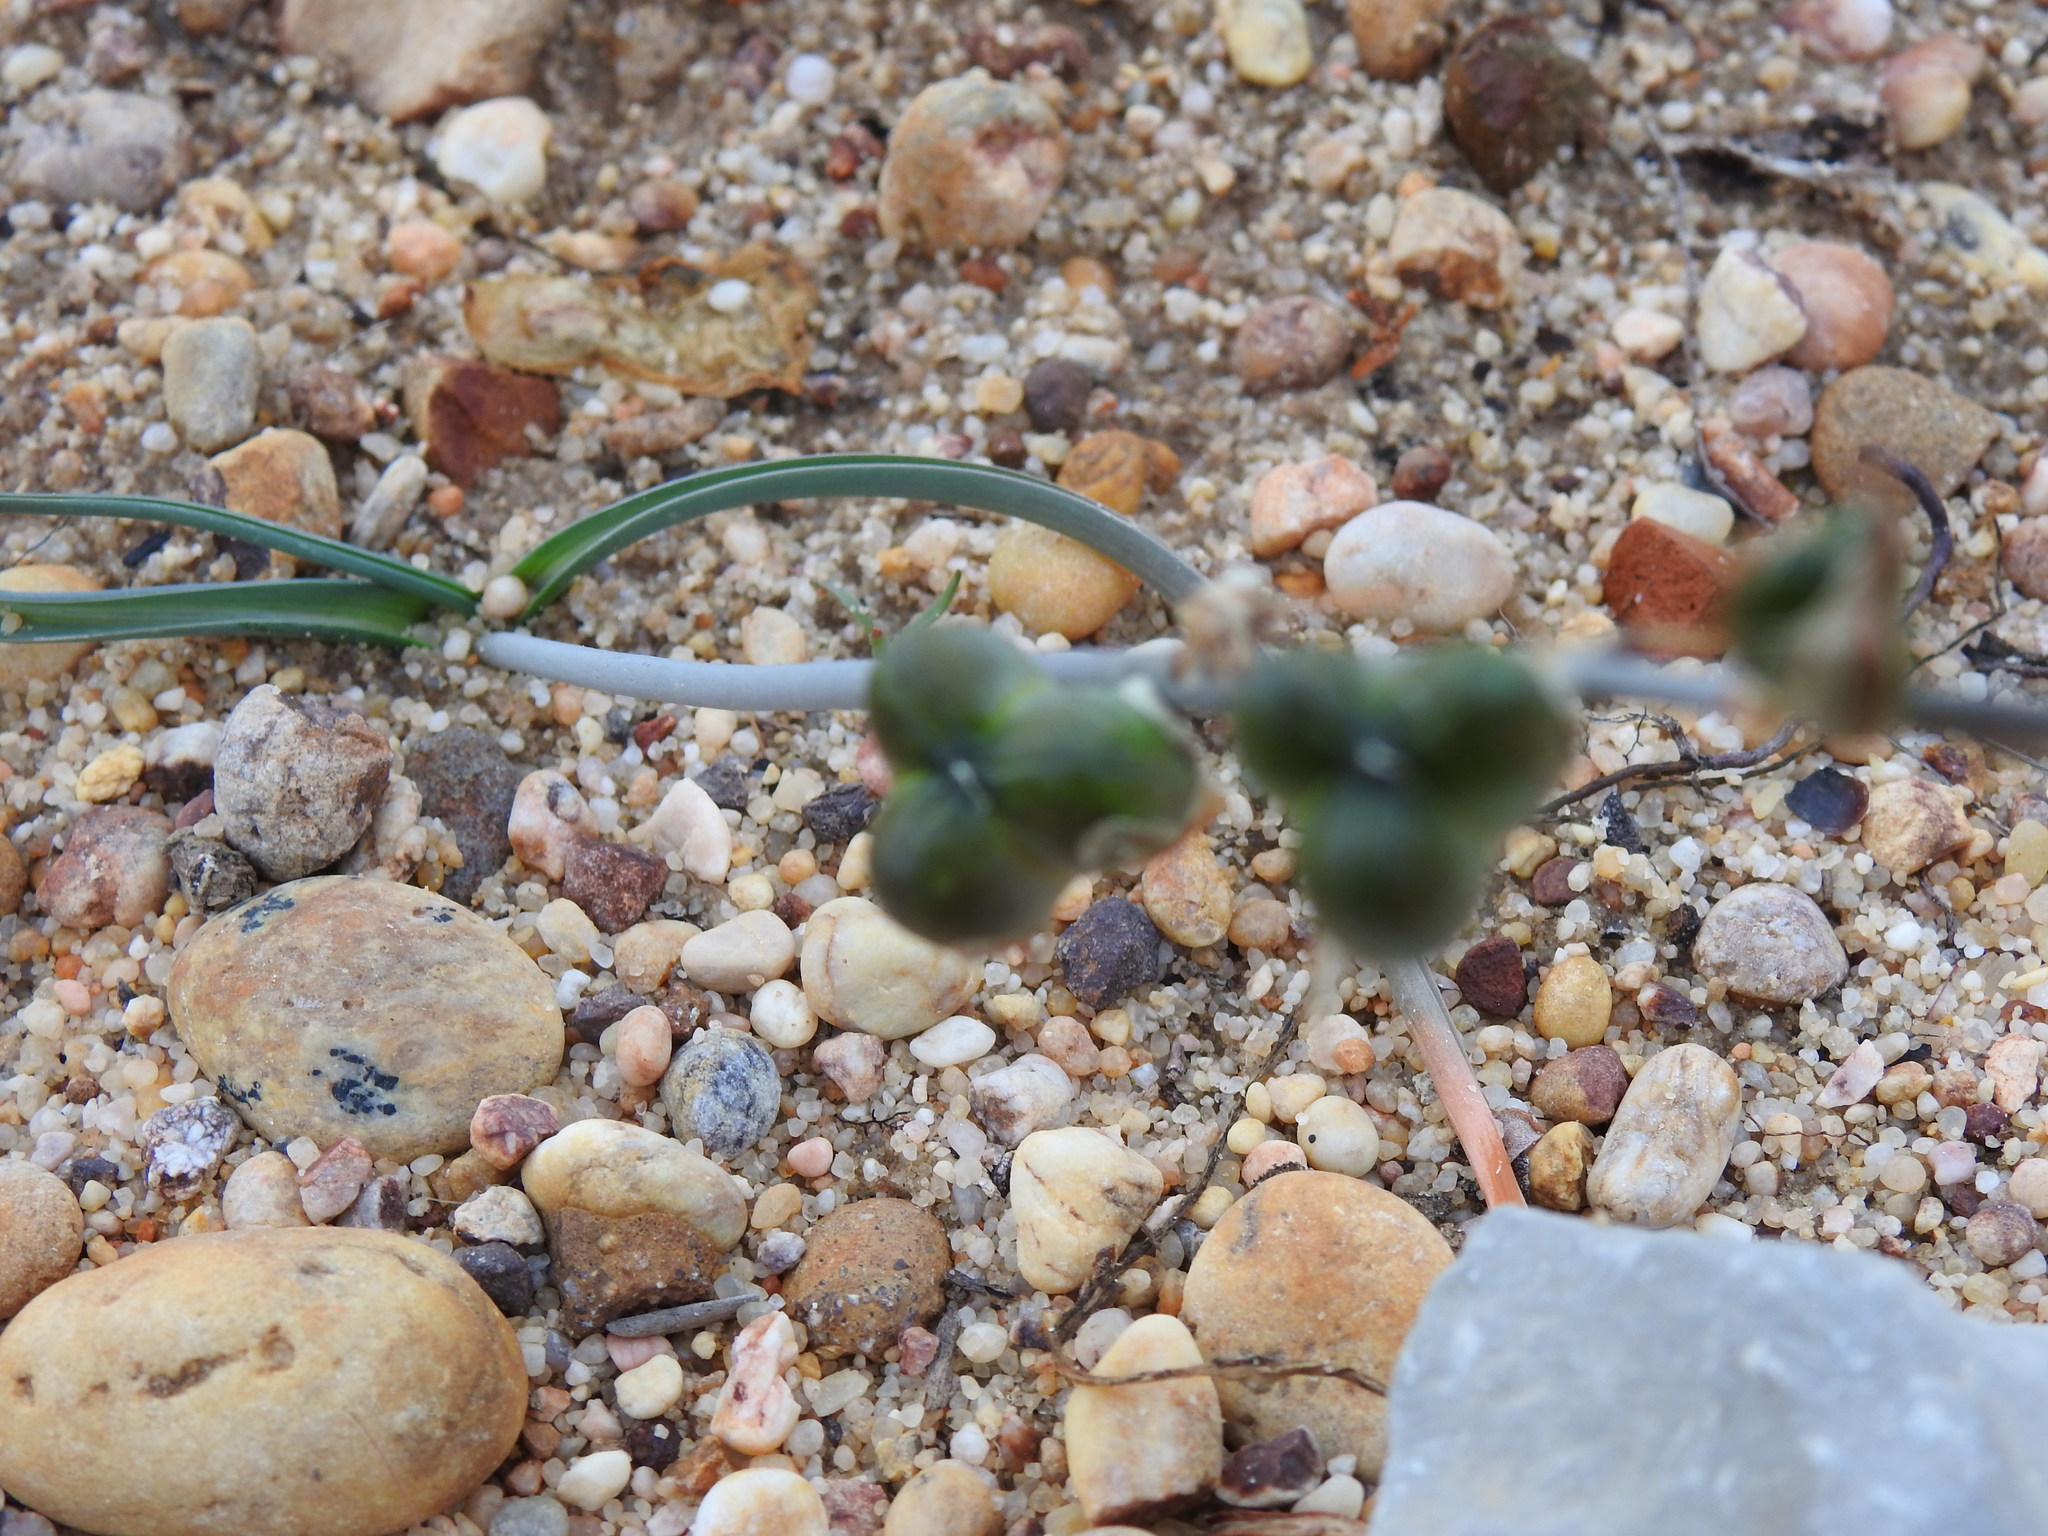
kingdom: Plantae
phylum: Tracheophyta
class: Liliopsida
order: Asparagales
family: Asparagaceae
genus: Dipcadi
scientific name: Dipcadi serotinum
